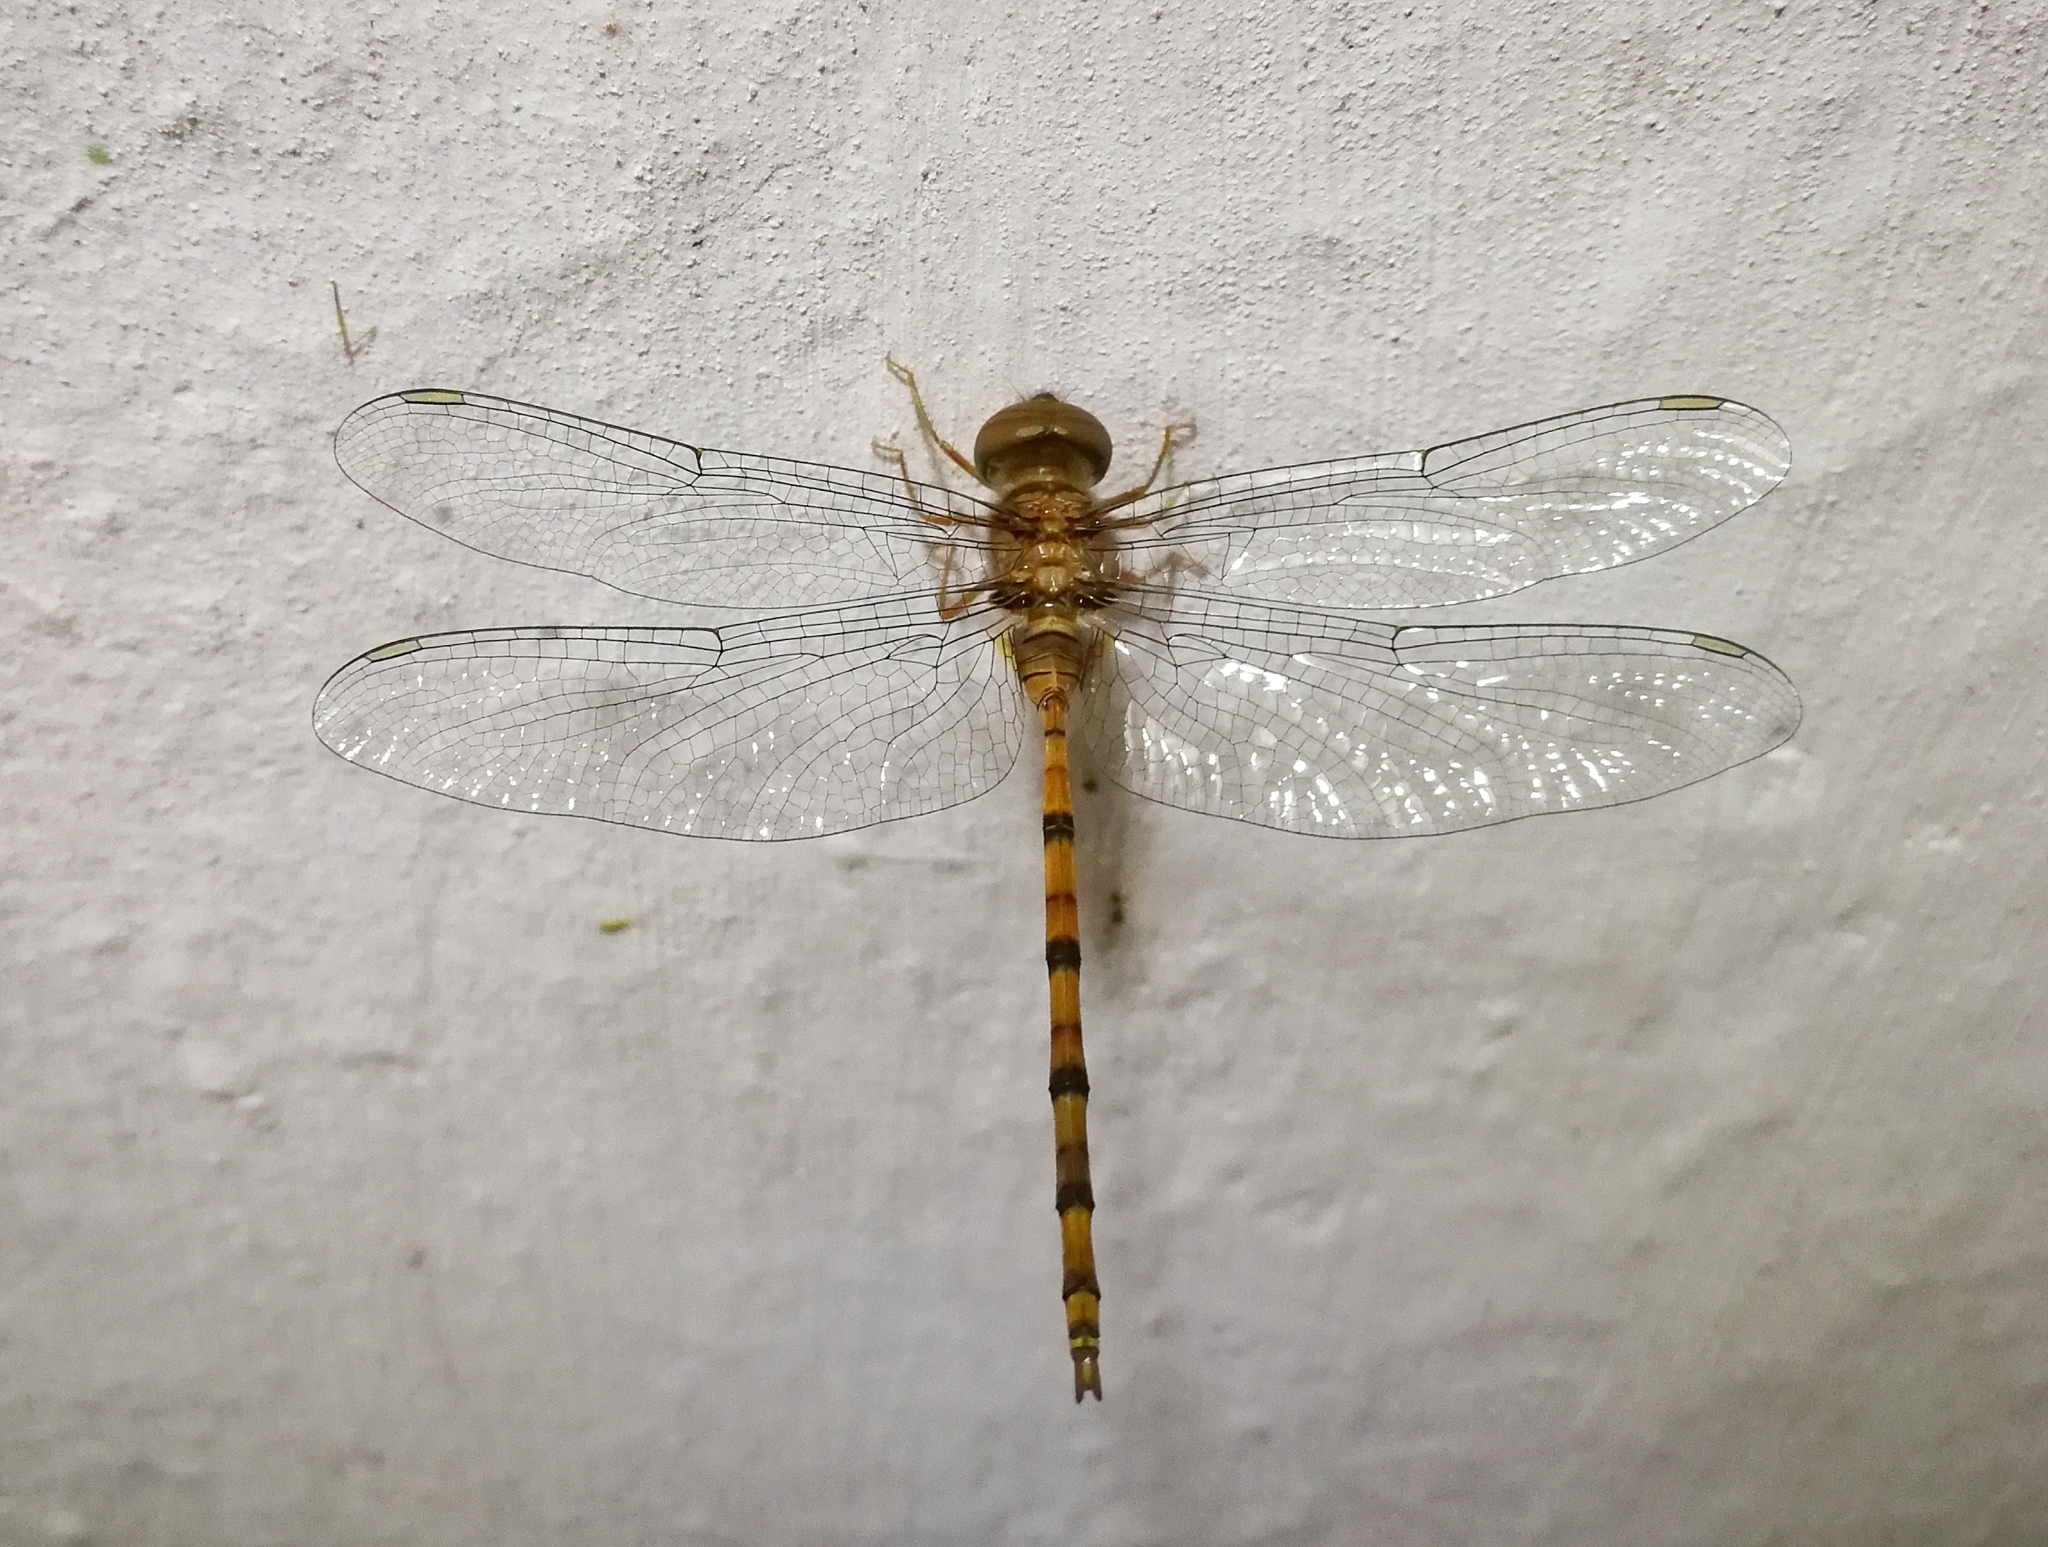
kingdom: Animalia
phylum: Arthropoda
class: Insecta
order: Odonata
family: Libellulidae
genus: Zyxomma
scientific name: Zyxomma petiolatum
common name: Dingy dusk-darter
